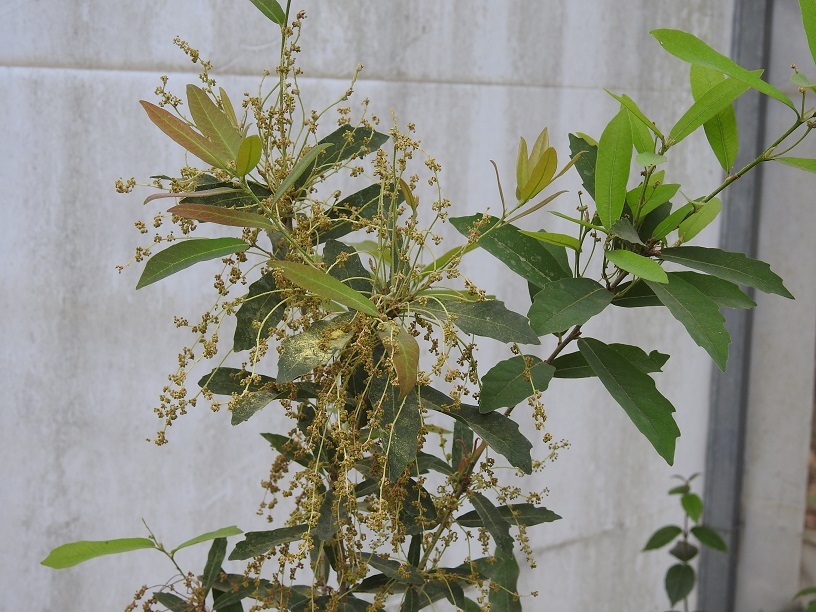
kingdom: Plantae
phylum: Tracheophyta
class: Magnoliopsida
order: Fagales
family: Fagaceae
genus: Quercus
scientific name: Quercus sebifera
